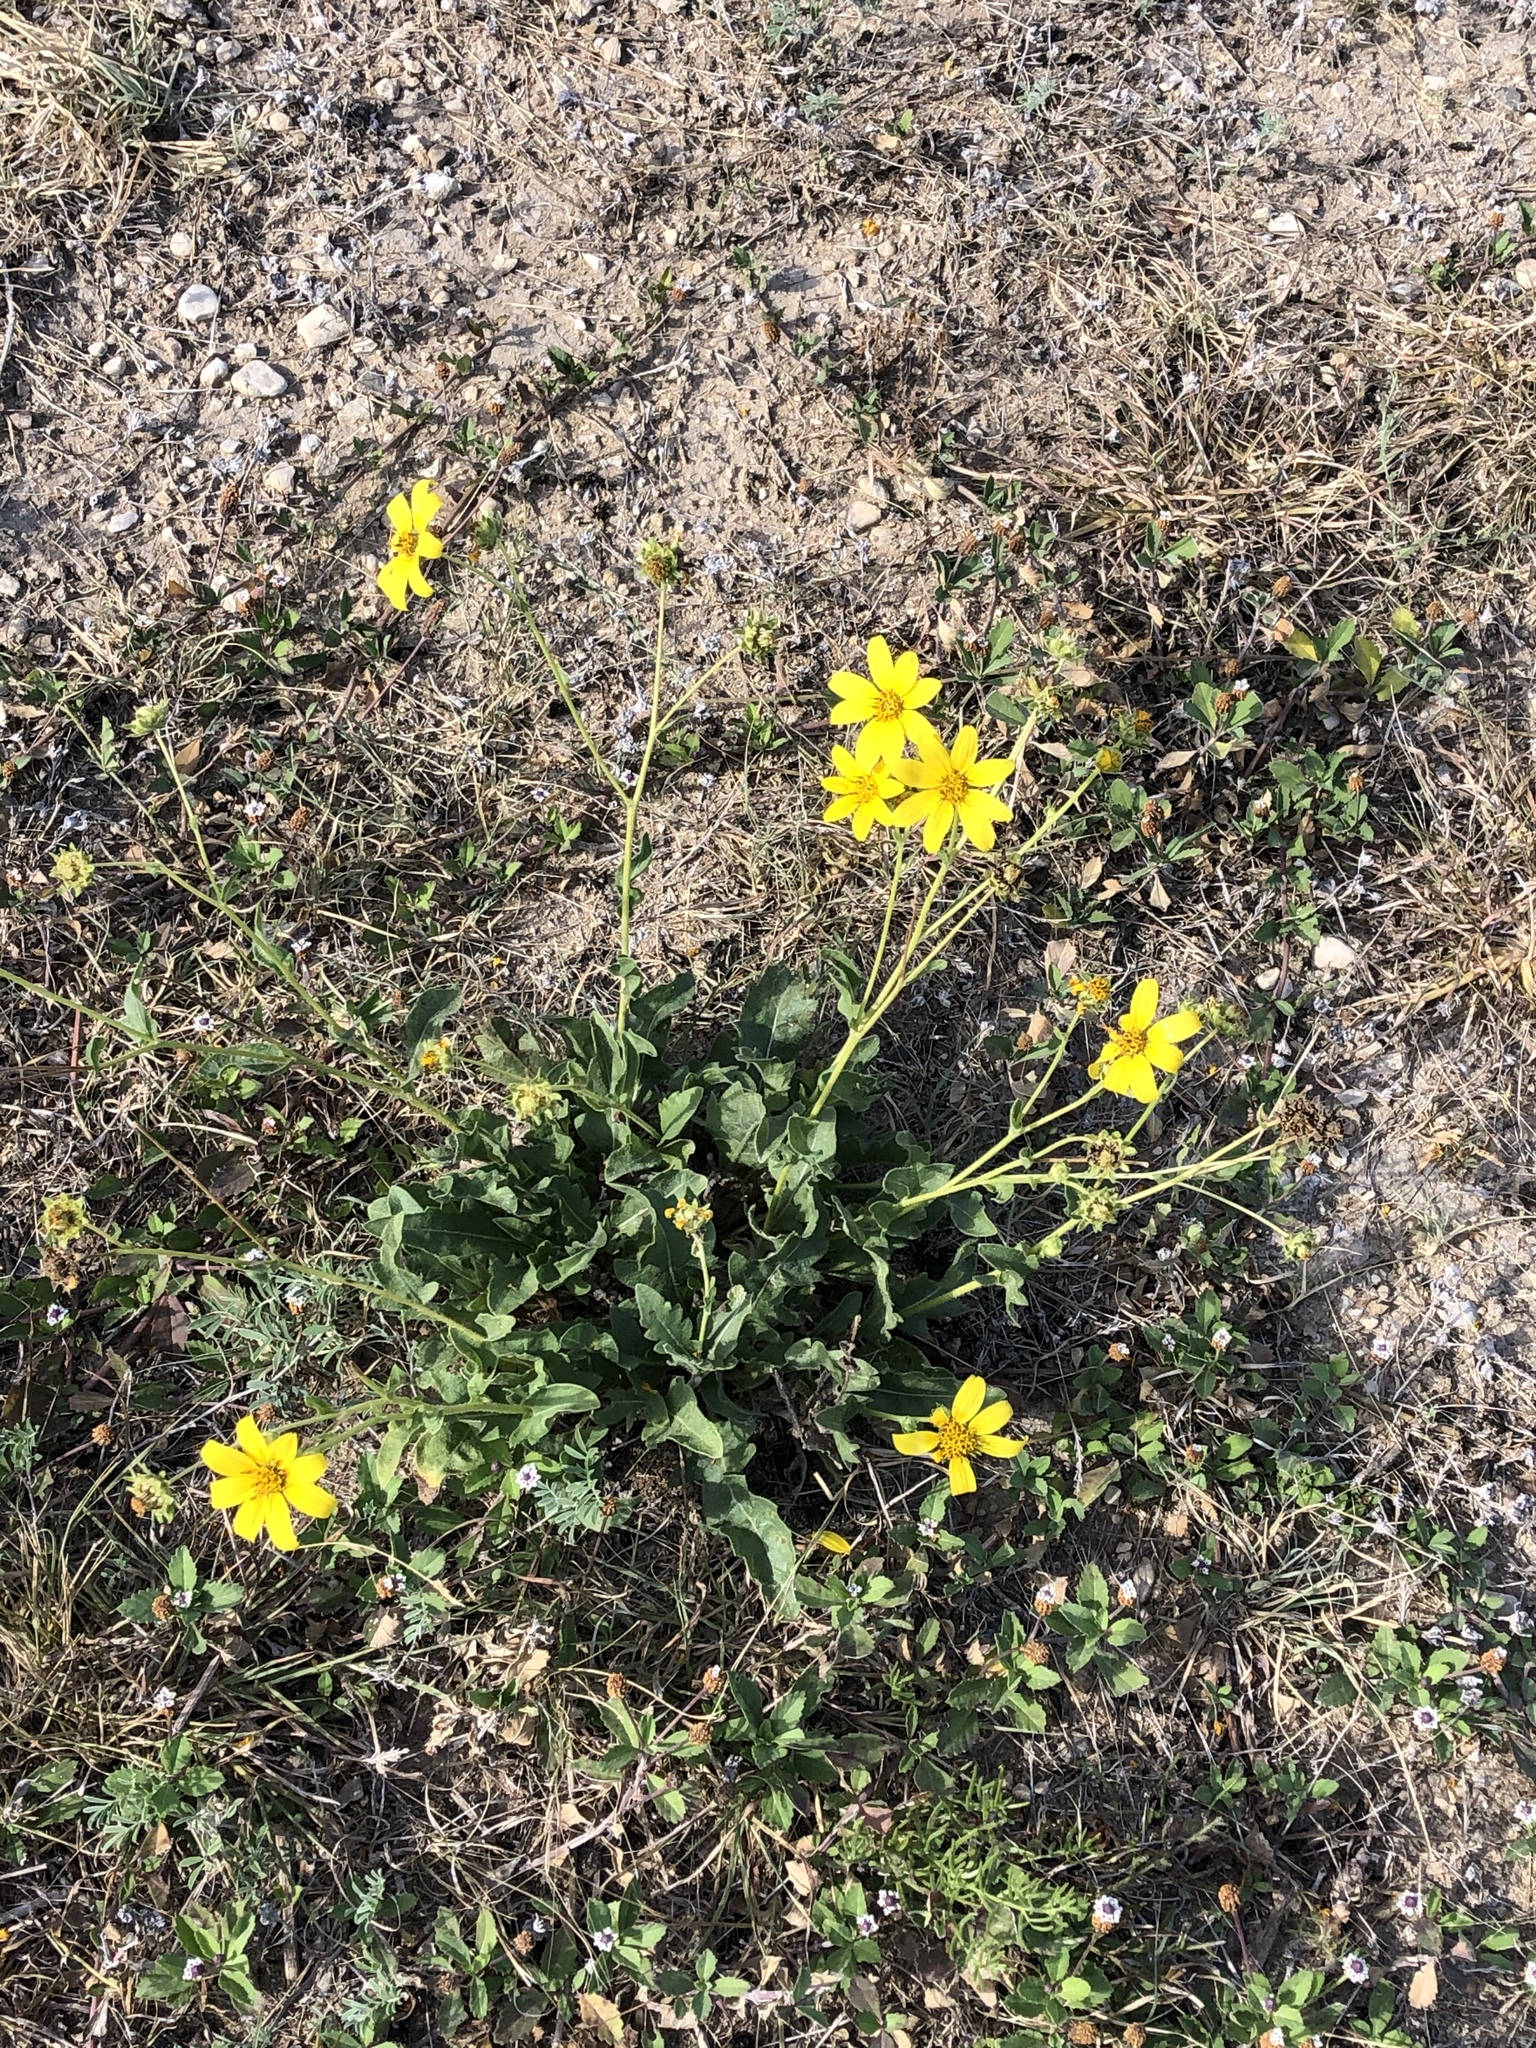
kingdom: Plantae
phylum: Tracheophyta
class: Magnoliopsida
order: Asterales
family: Asteraceae
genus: Engelmannia
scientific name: Engelmannia peristenia
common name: Engelmann's daisy
